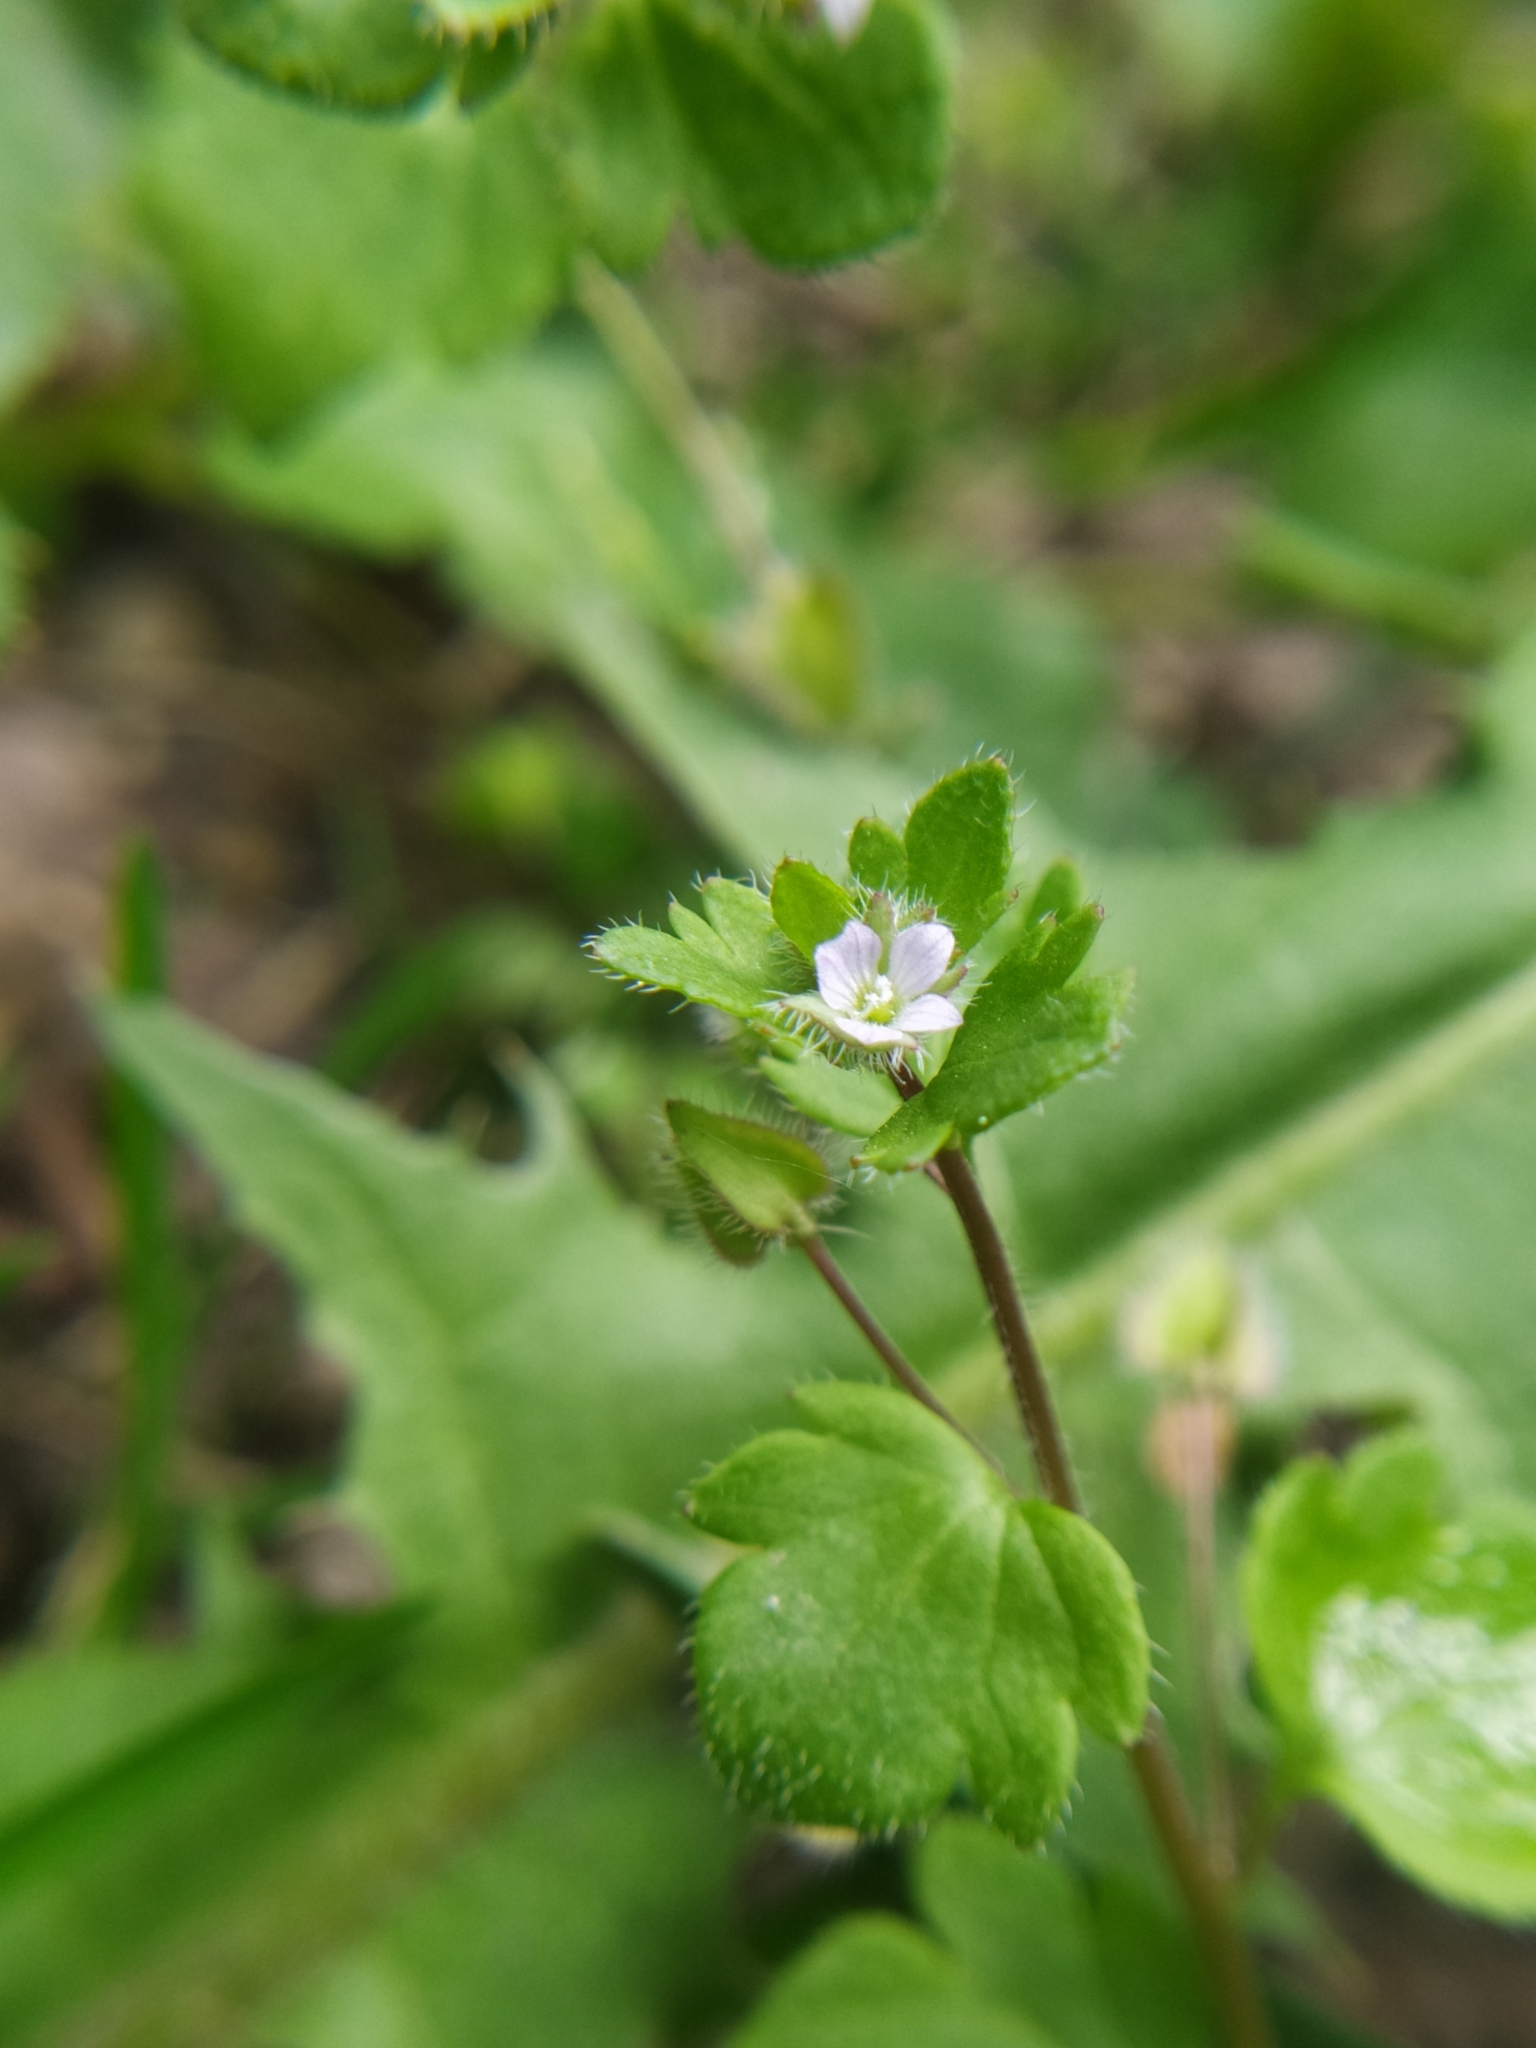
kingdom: Plantae
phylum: Tracheophyta
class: Magnoliopsida
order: Lamiales
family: Plantaginaceae
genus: Veronica
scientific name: Veronica sublobata
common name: False ivy-leaved speedwell
